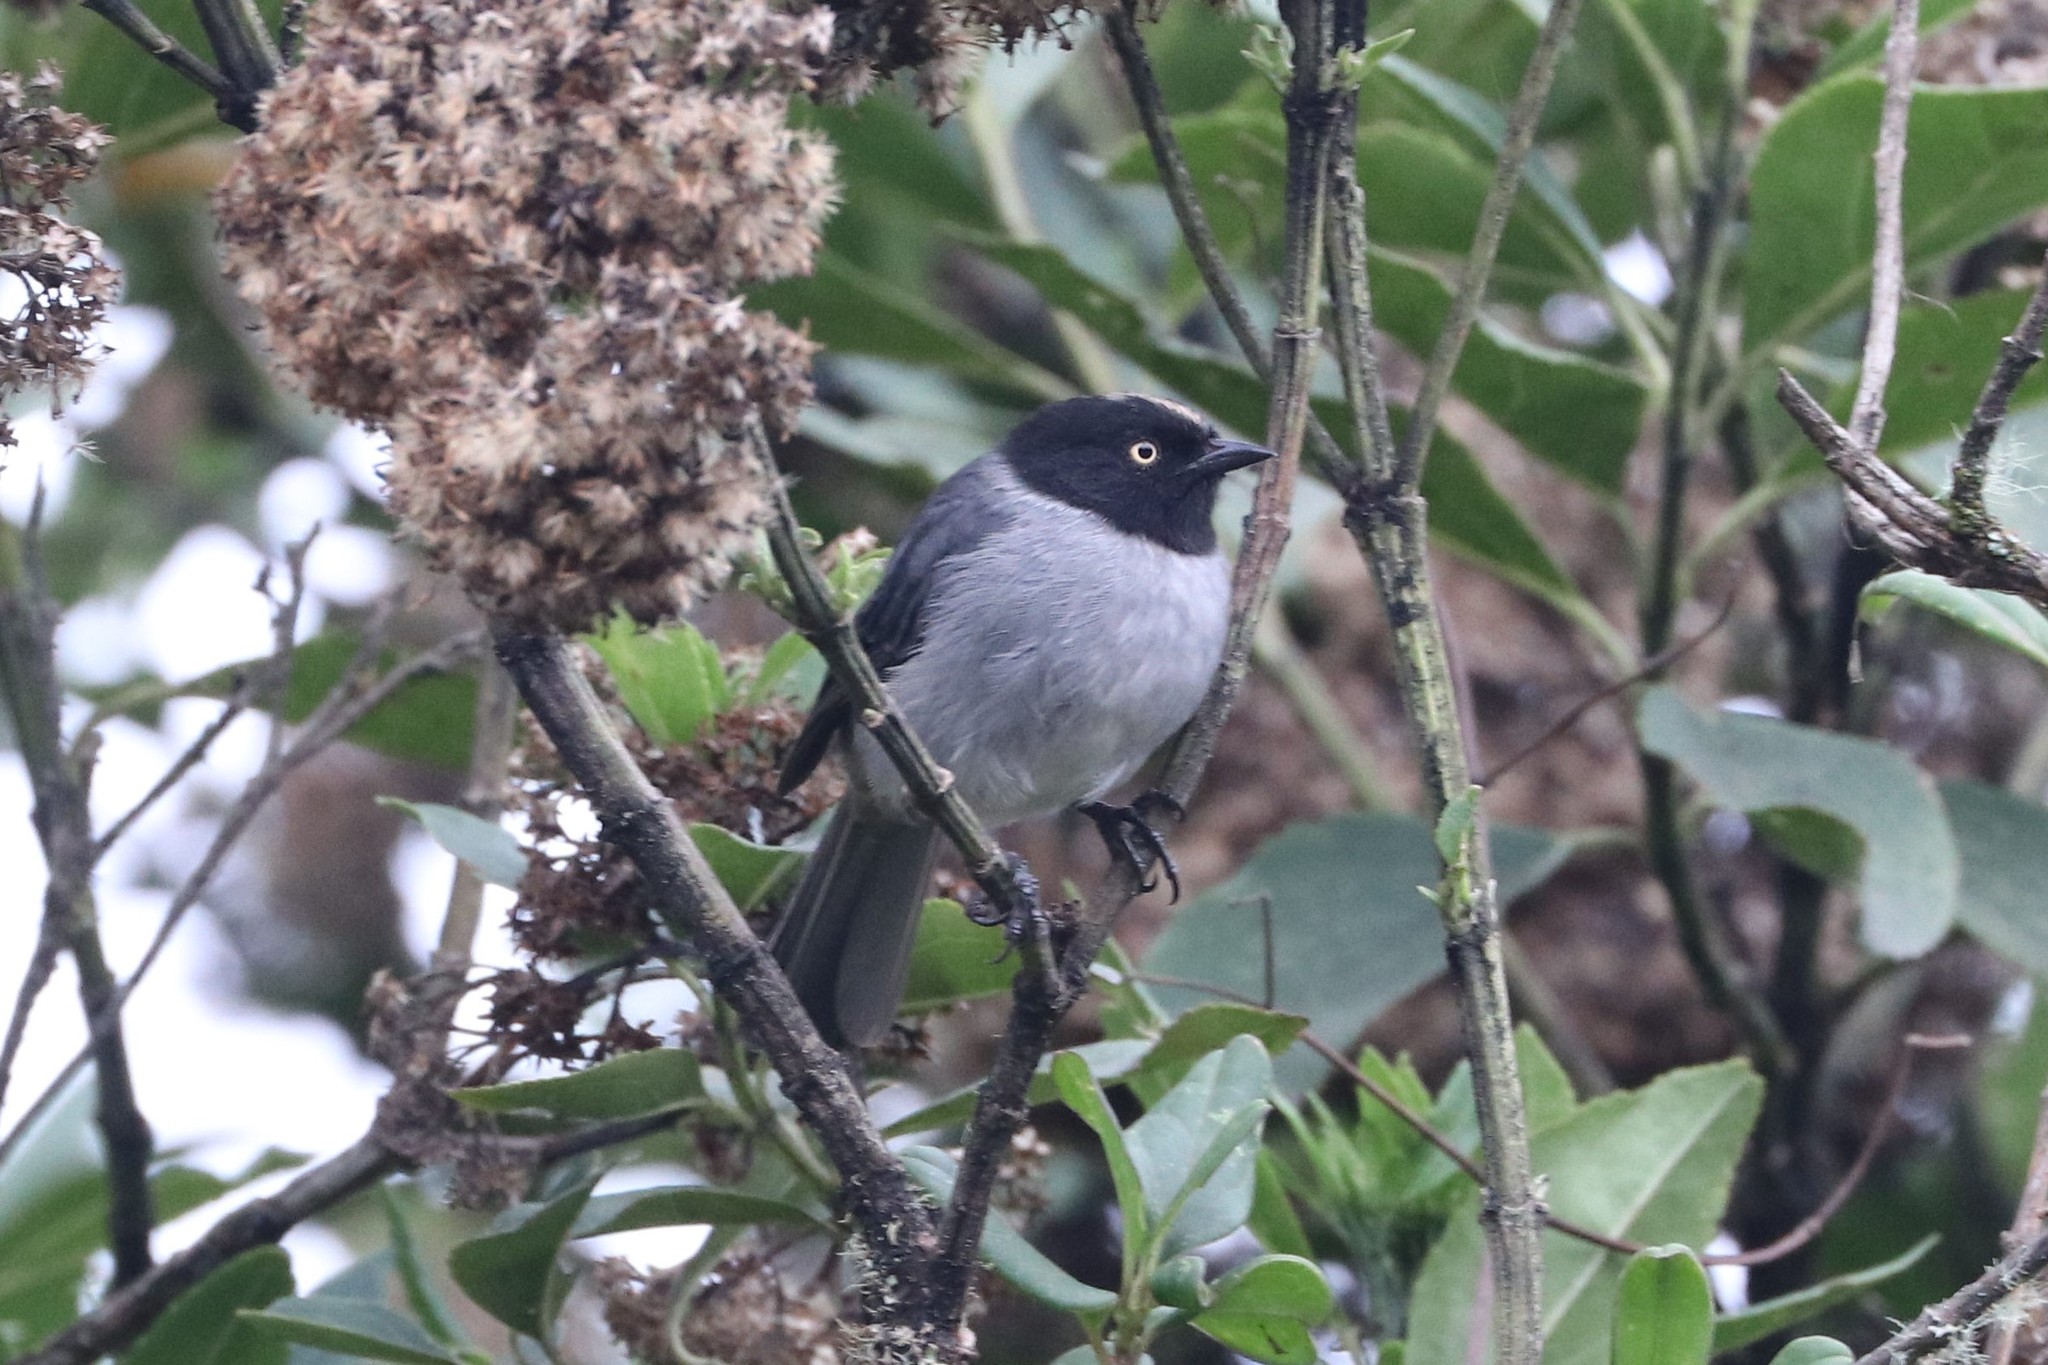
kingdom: Animalia
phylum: Chordata
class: Aves
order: Passeriformes
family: Thraupidae
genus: Pseudospingus
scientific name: Pseudospingus verticalis
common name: Black-headed hemispingus
